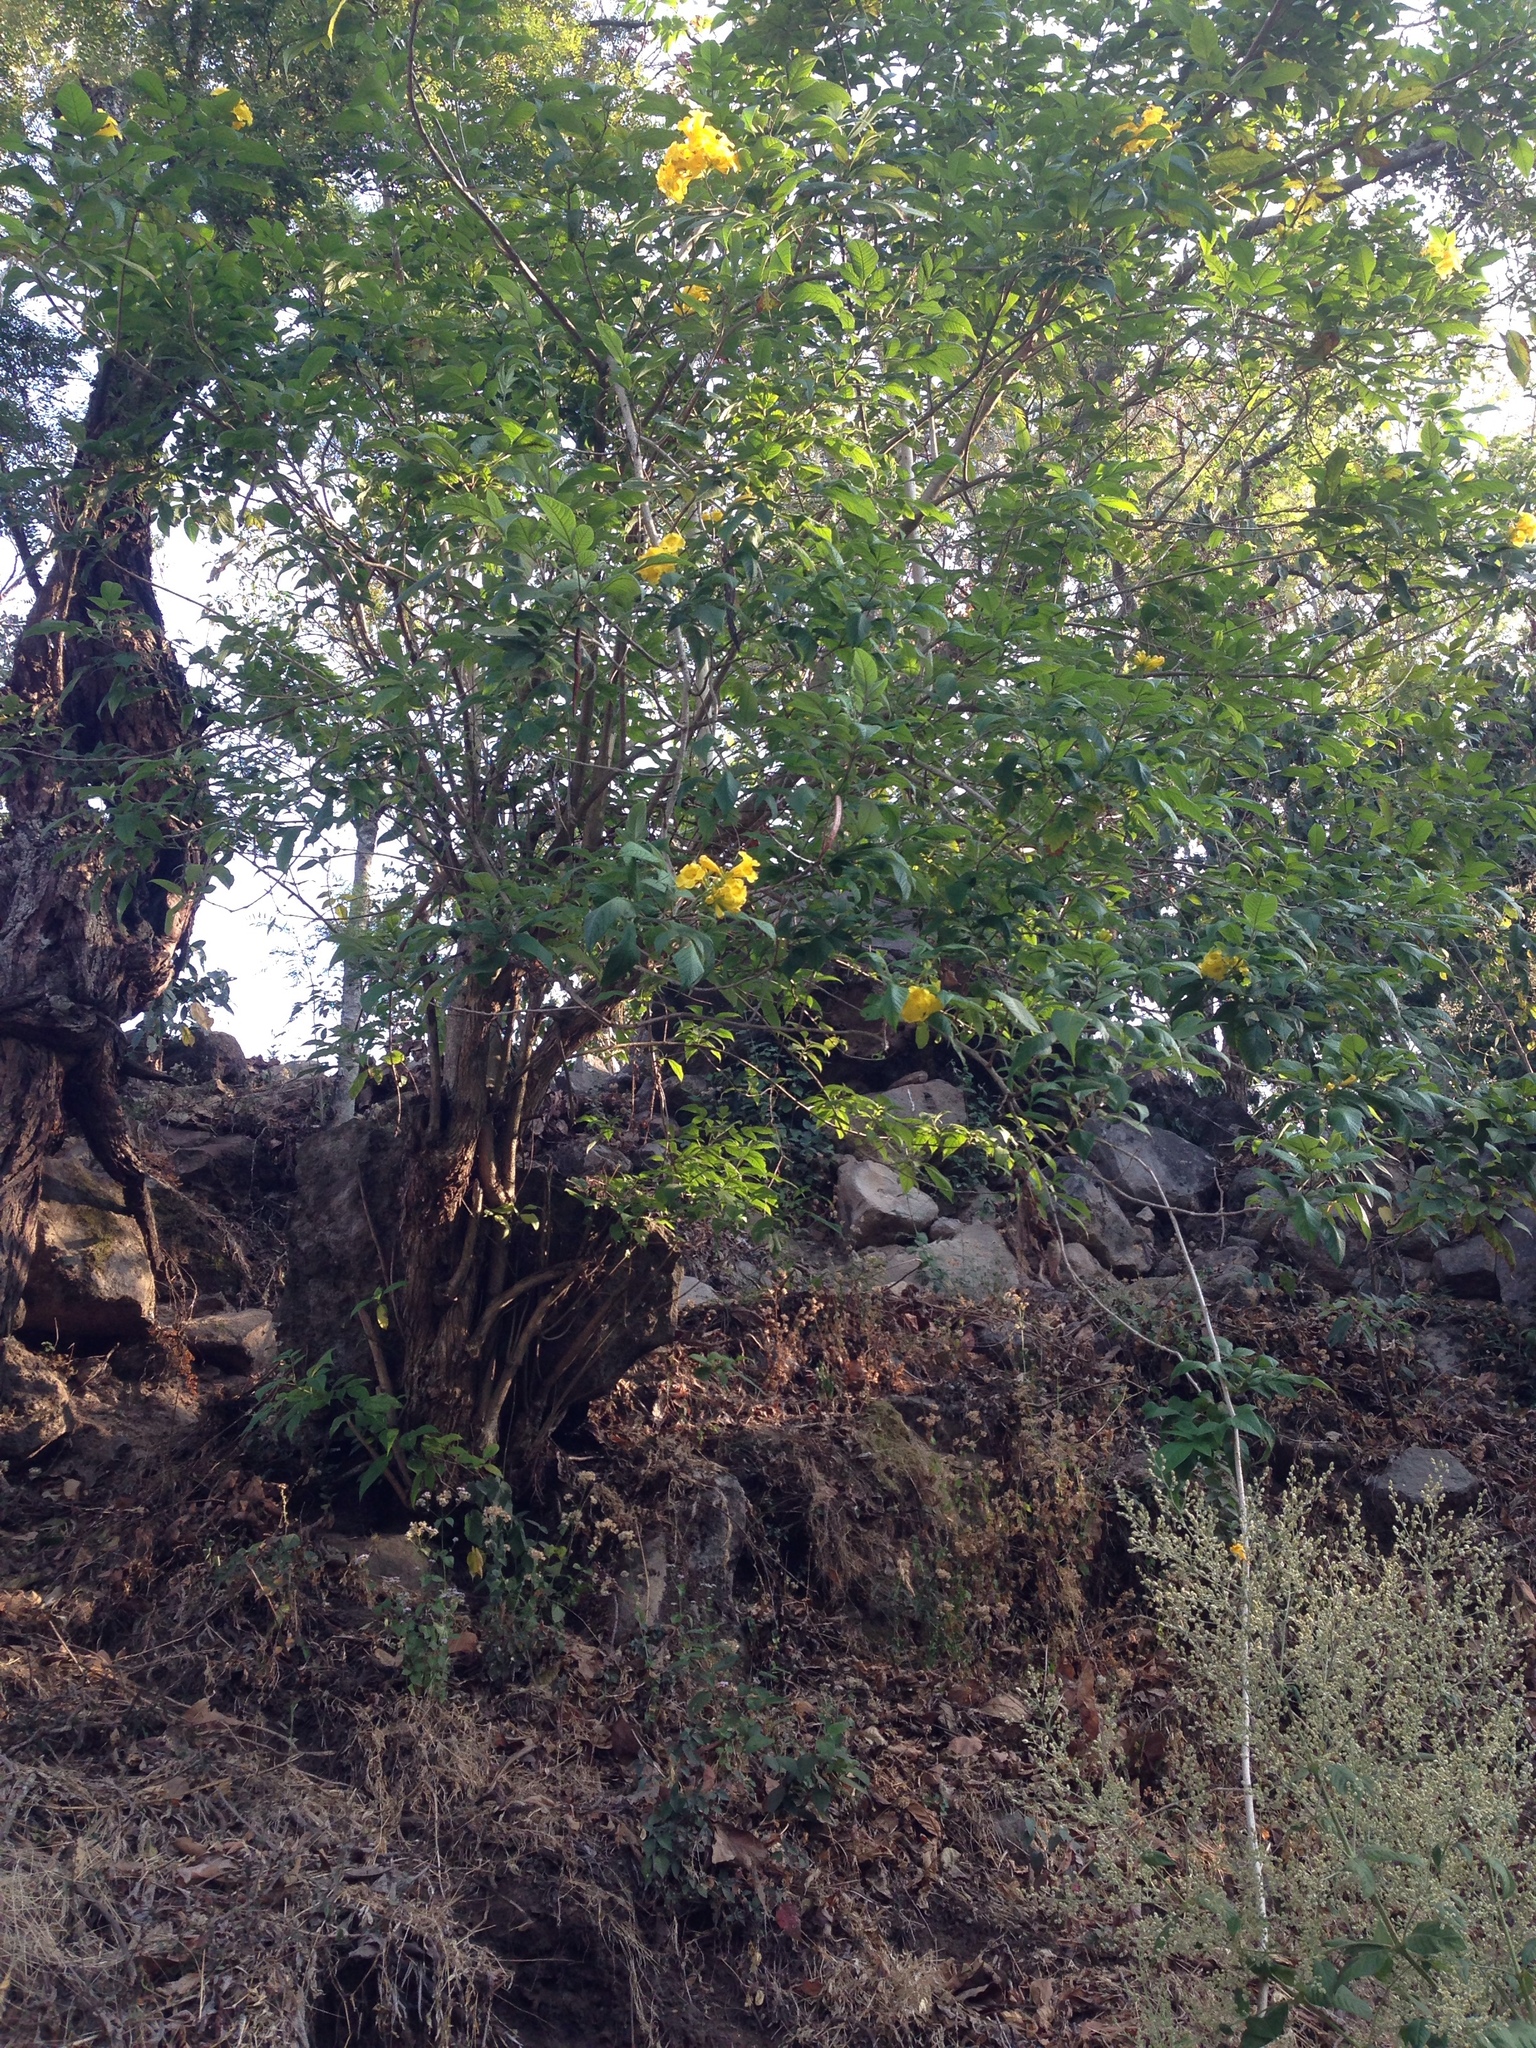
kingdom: Plantae
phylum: Tracheophyta
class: Magnoliopsida
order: Lamiales
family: Bignoniaceae
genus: Tecoma
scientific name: Tecoma stans
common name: Yellow trumpetbush
